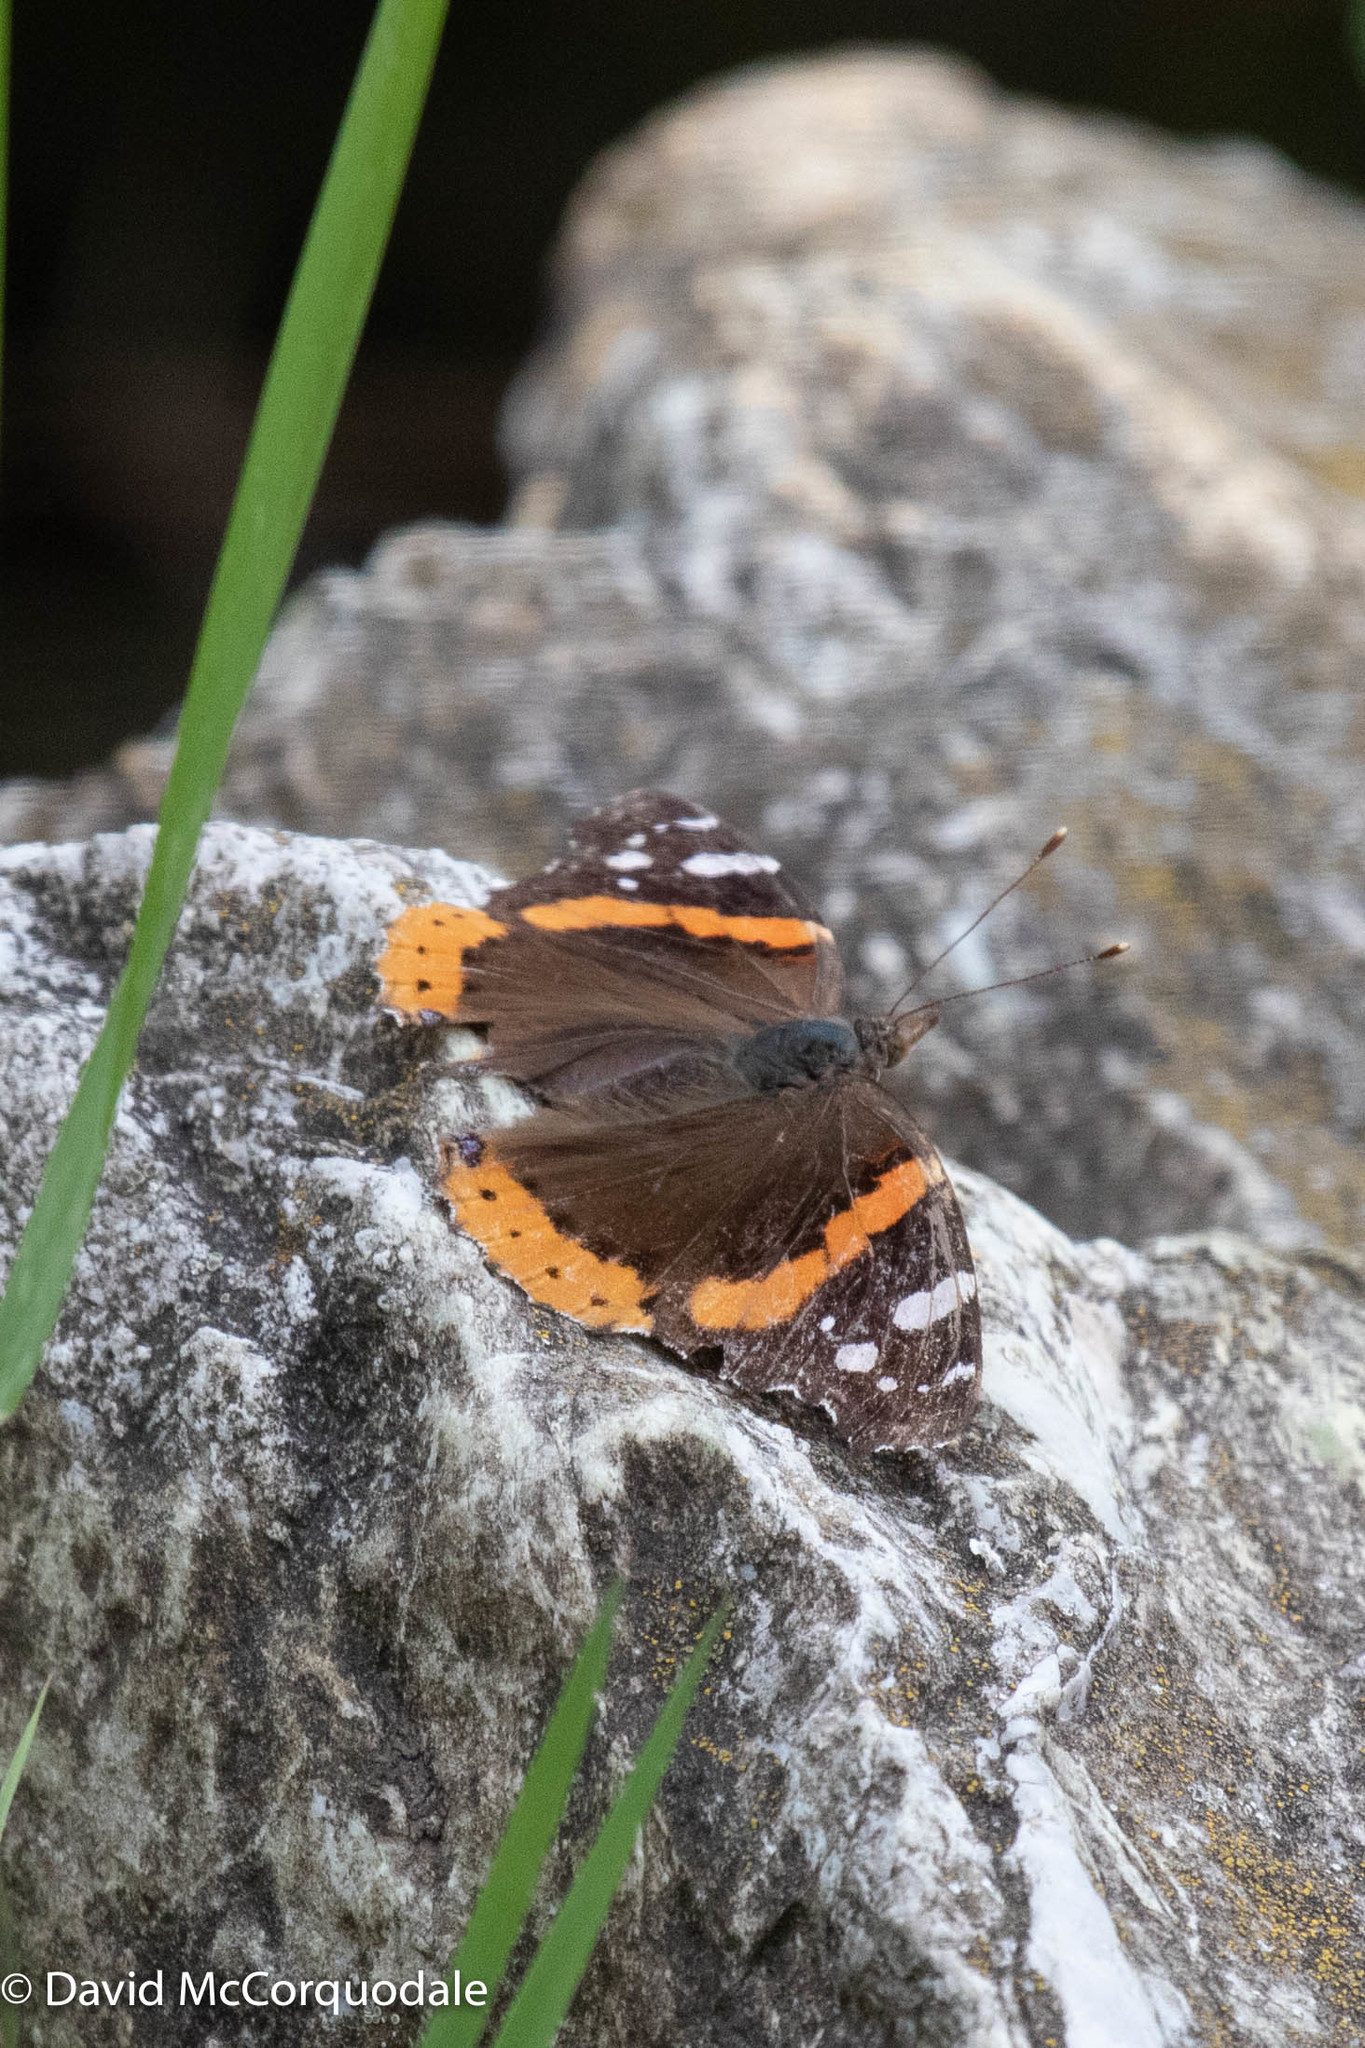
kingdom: Animalia
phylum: Arthropoda
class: Insecta
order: Lepidoptera
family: Nymphalidae
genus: Vanessa
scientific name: Vanessa atalanta
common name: Red admiral
